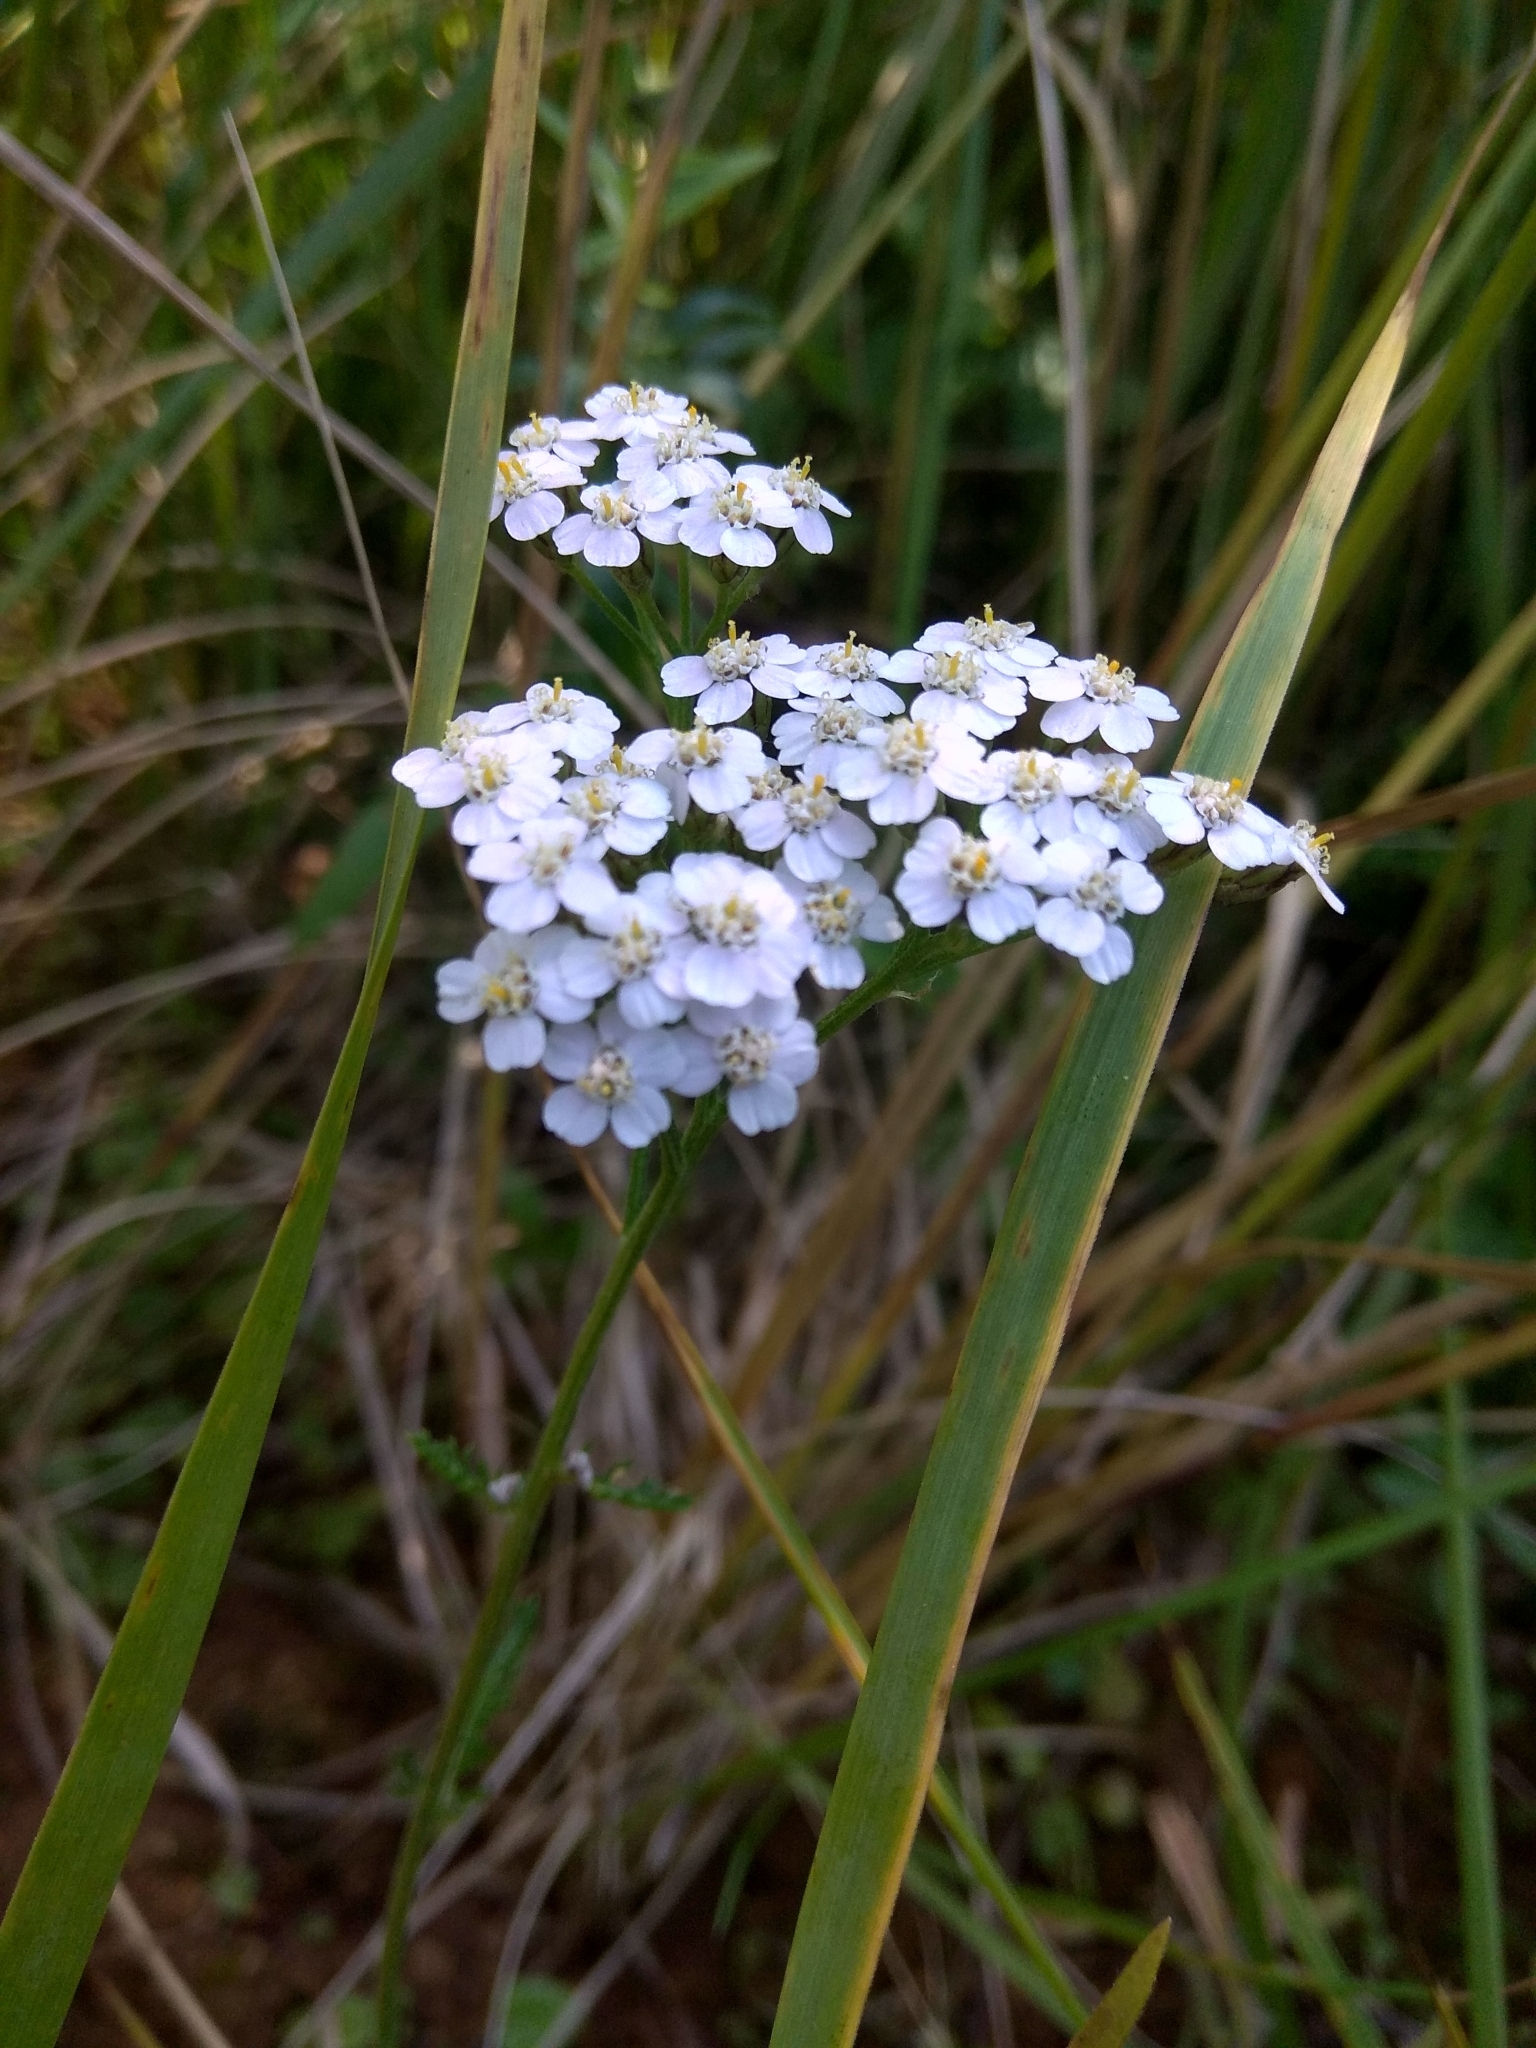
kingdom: Plantae
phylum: Tracheophyta
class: Magnoliopsida
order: Asterales
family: Asteraceae
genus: Achillea
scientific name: Achillea millefolium
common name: Yarrow
